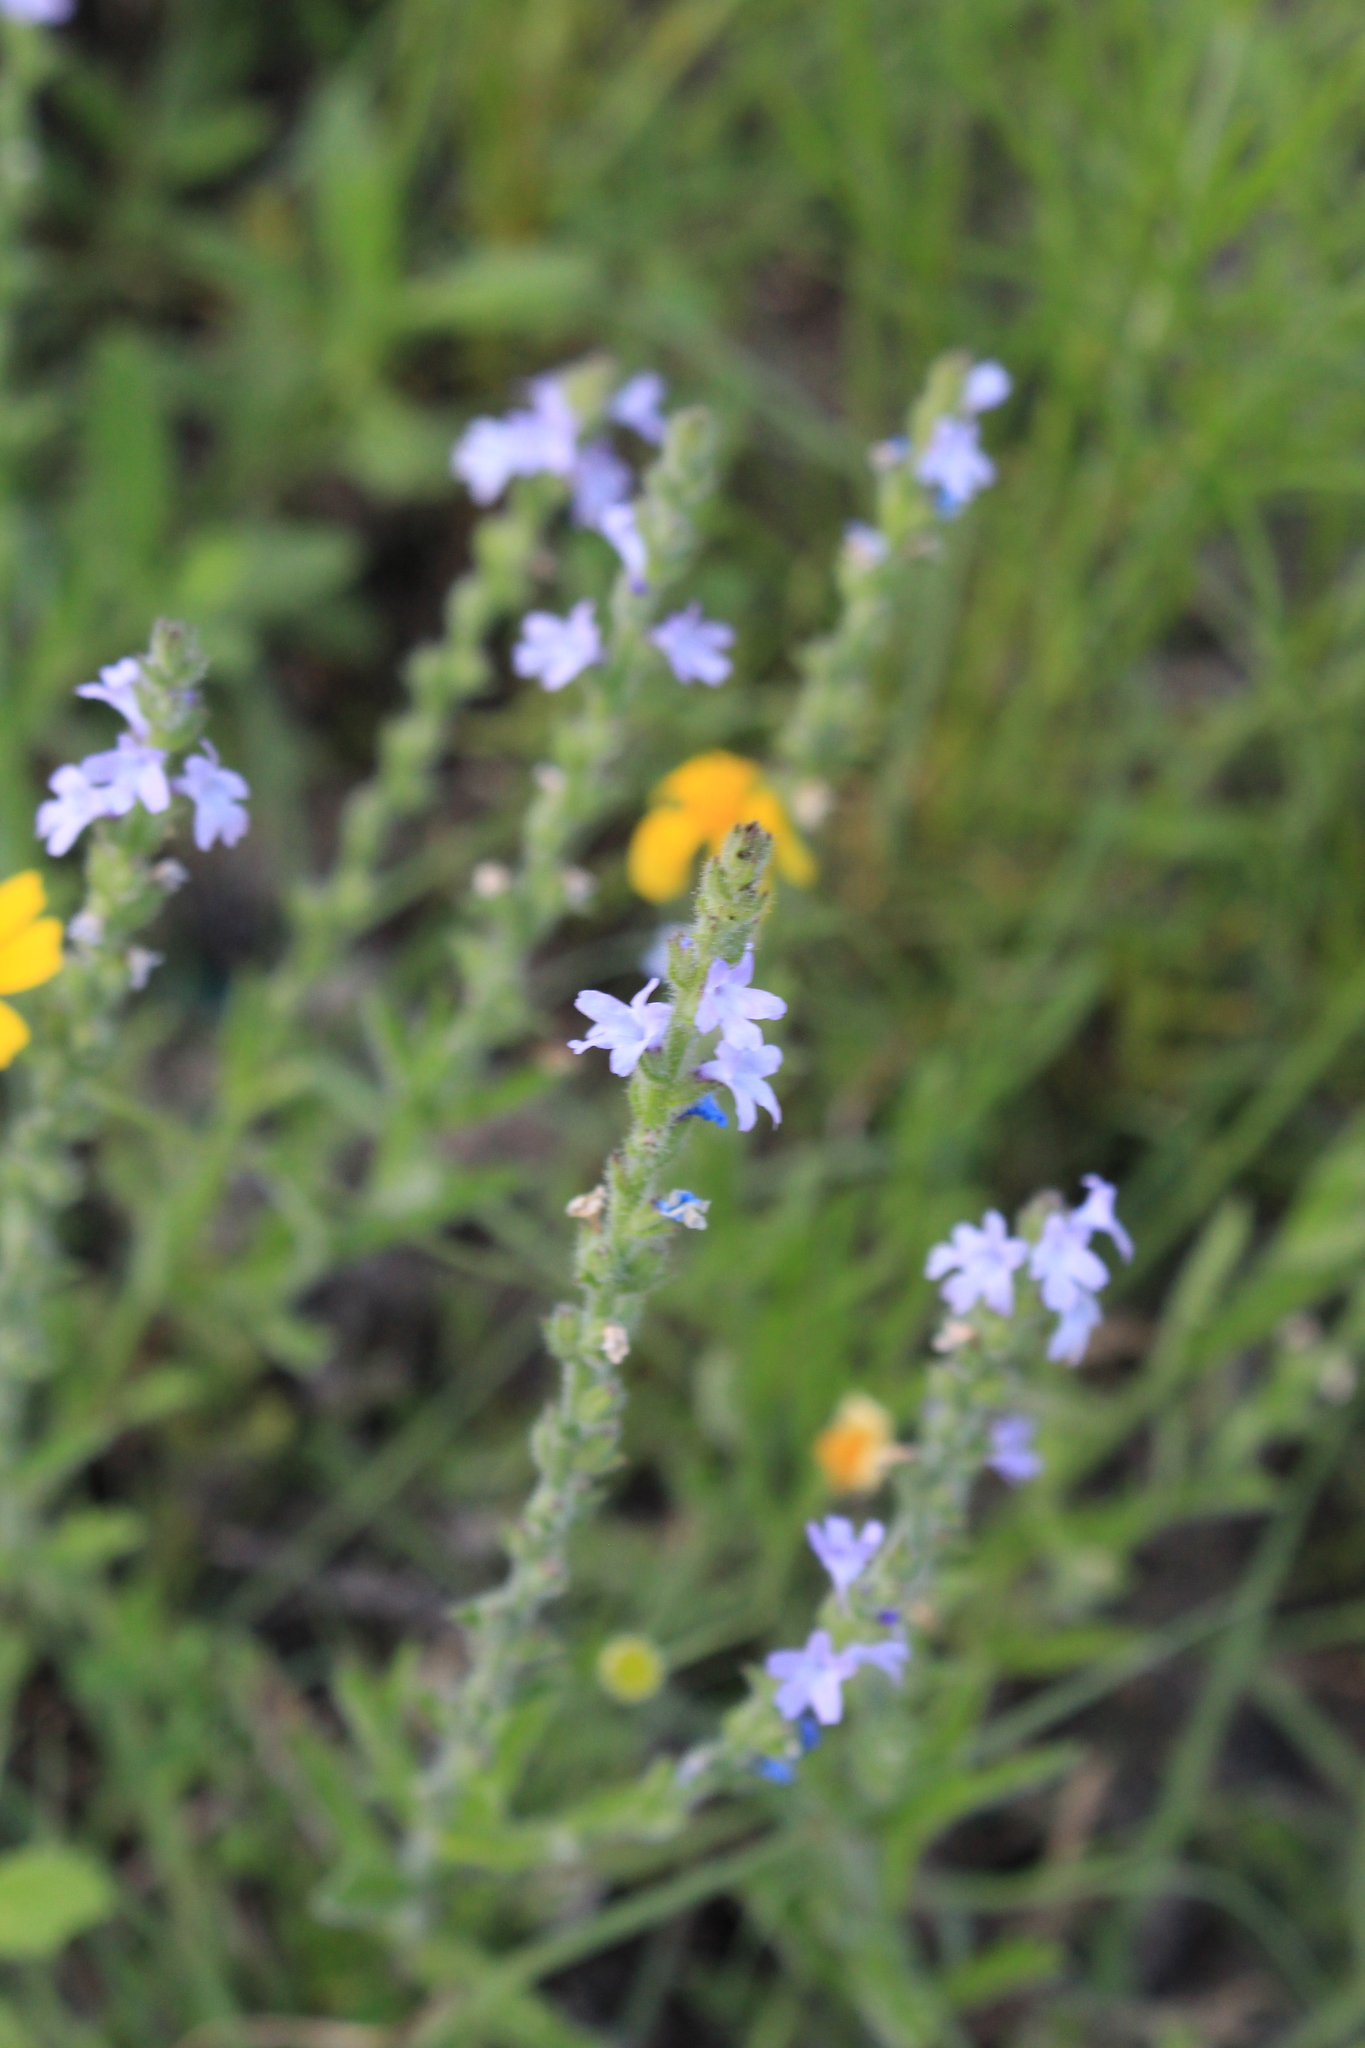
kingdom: Plantae
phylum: Tracheophyta
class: Magnoliopsida
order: Lamiales
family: Verbenaceae
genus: Verbena
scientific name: Verbena canescens
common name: Gray vervain
